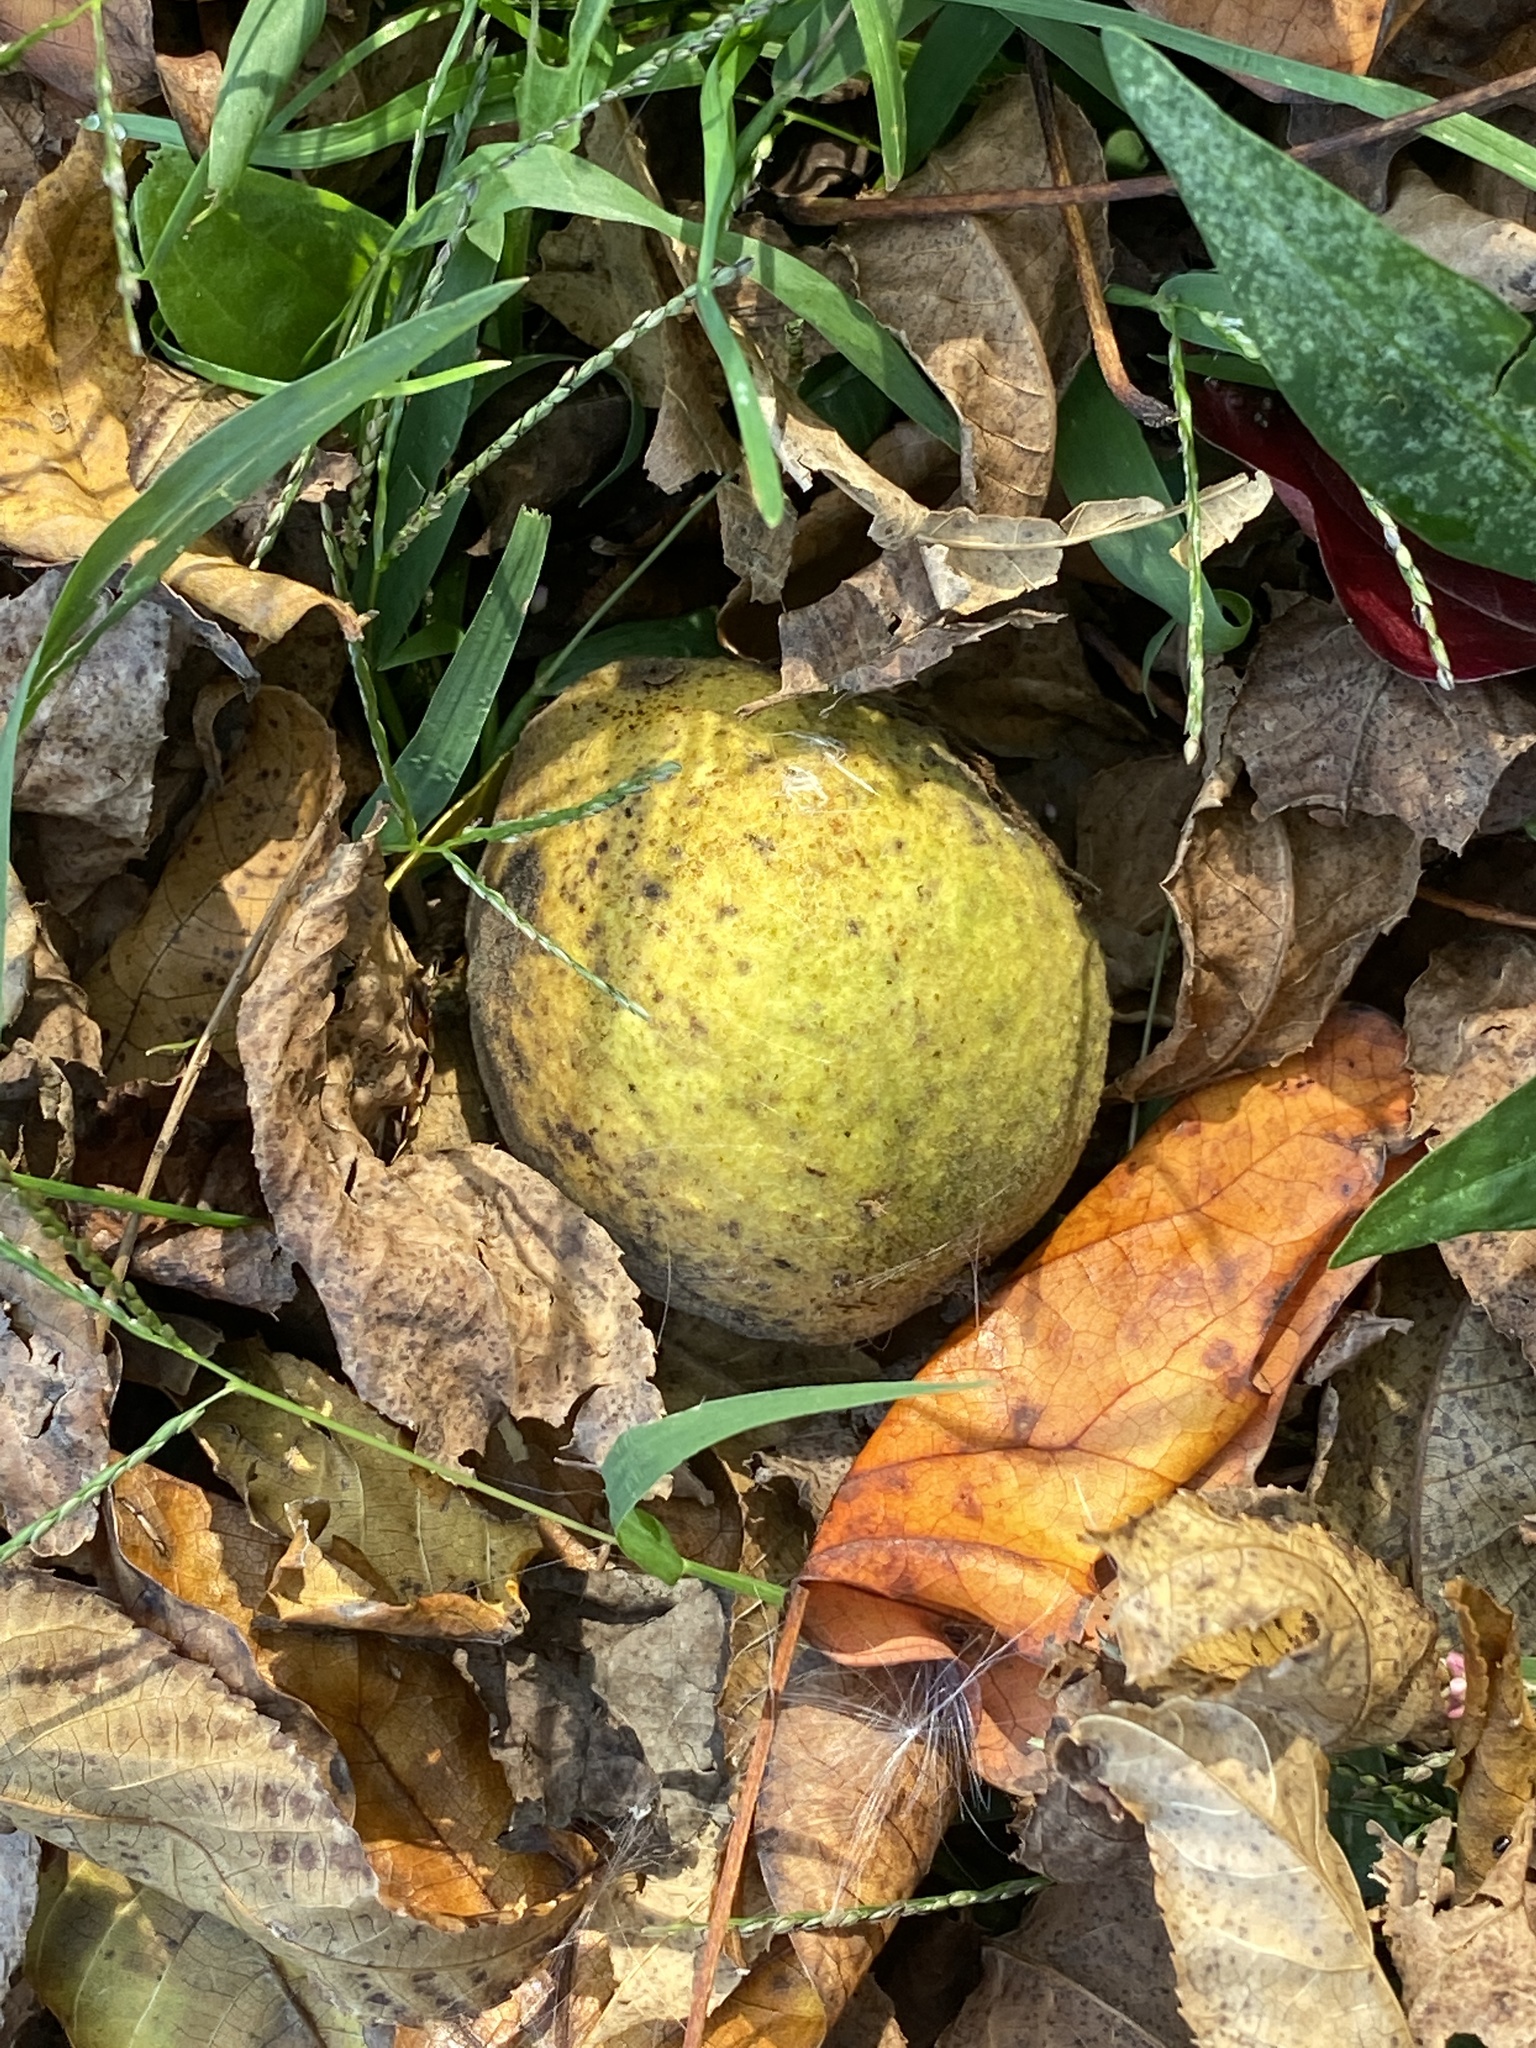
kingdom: Plantae
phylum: Tracheophyta
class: Magnoliopsida
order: Fagales
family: Juglandaceae
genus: Juglans
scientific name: Juglans nigra
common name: Black walnut
